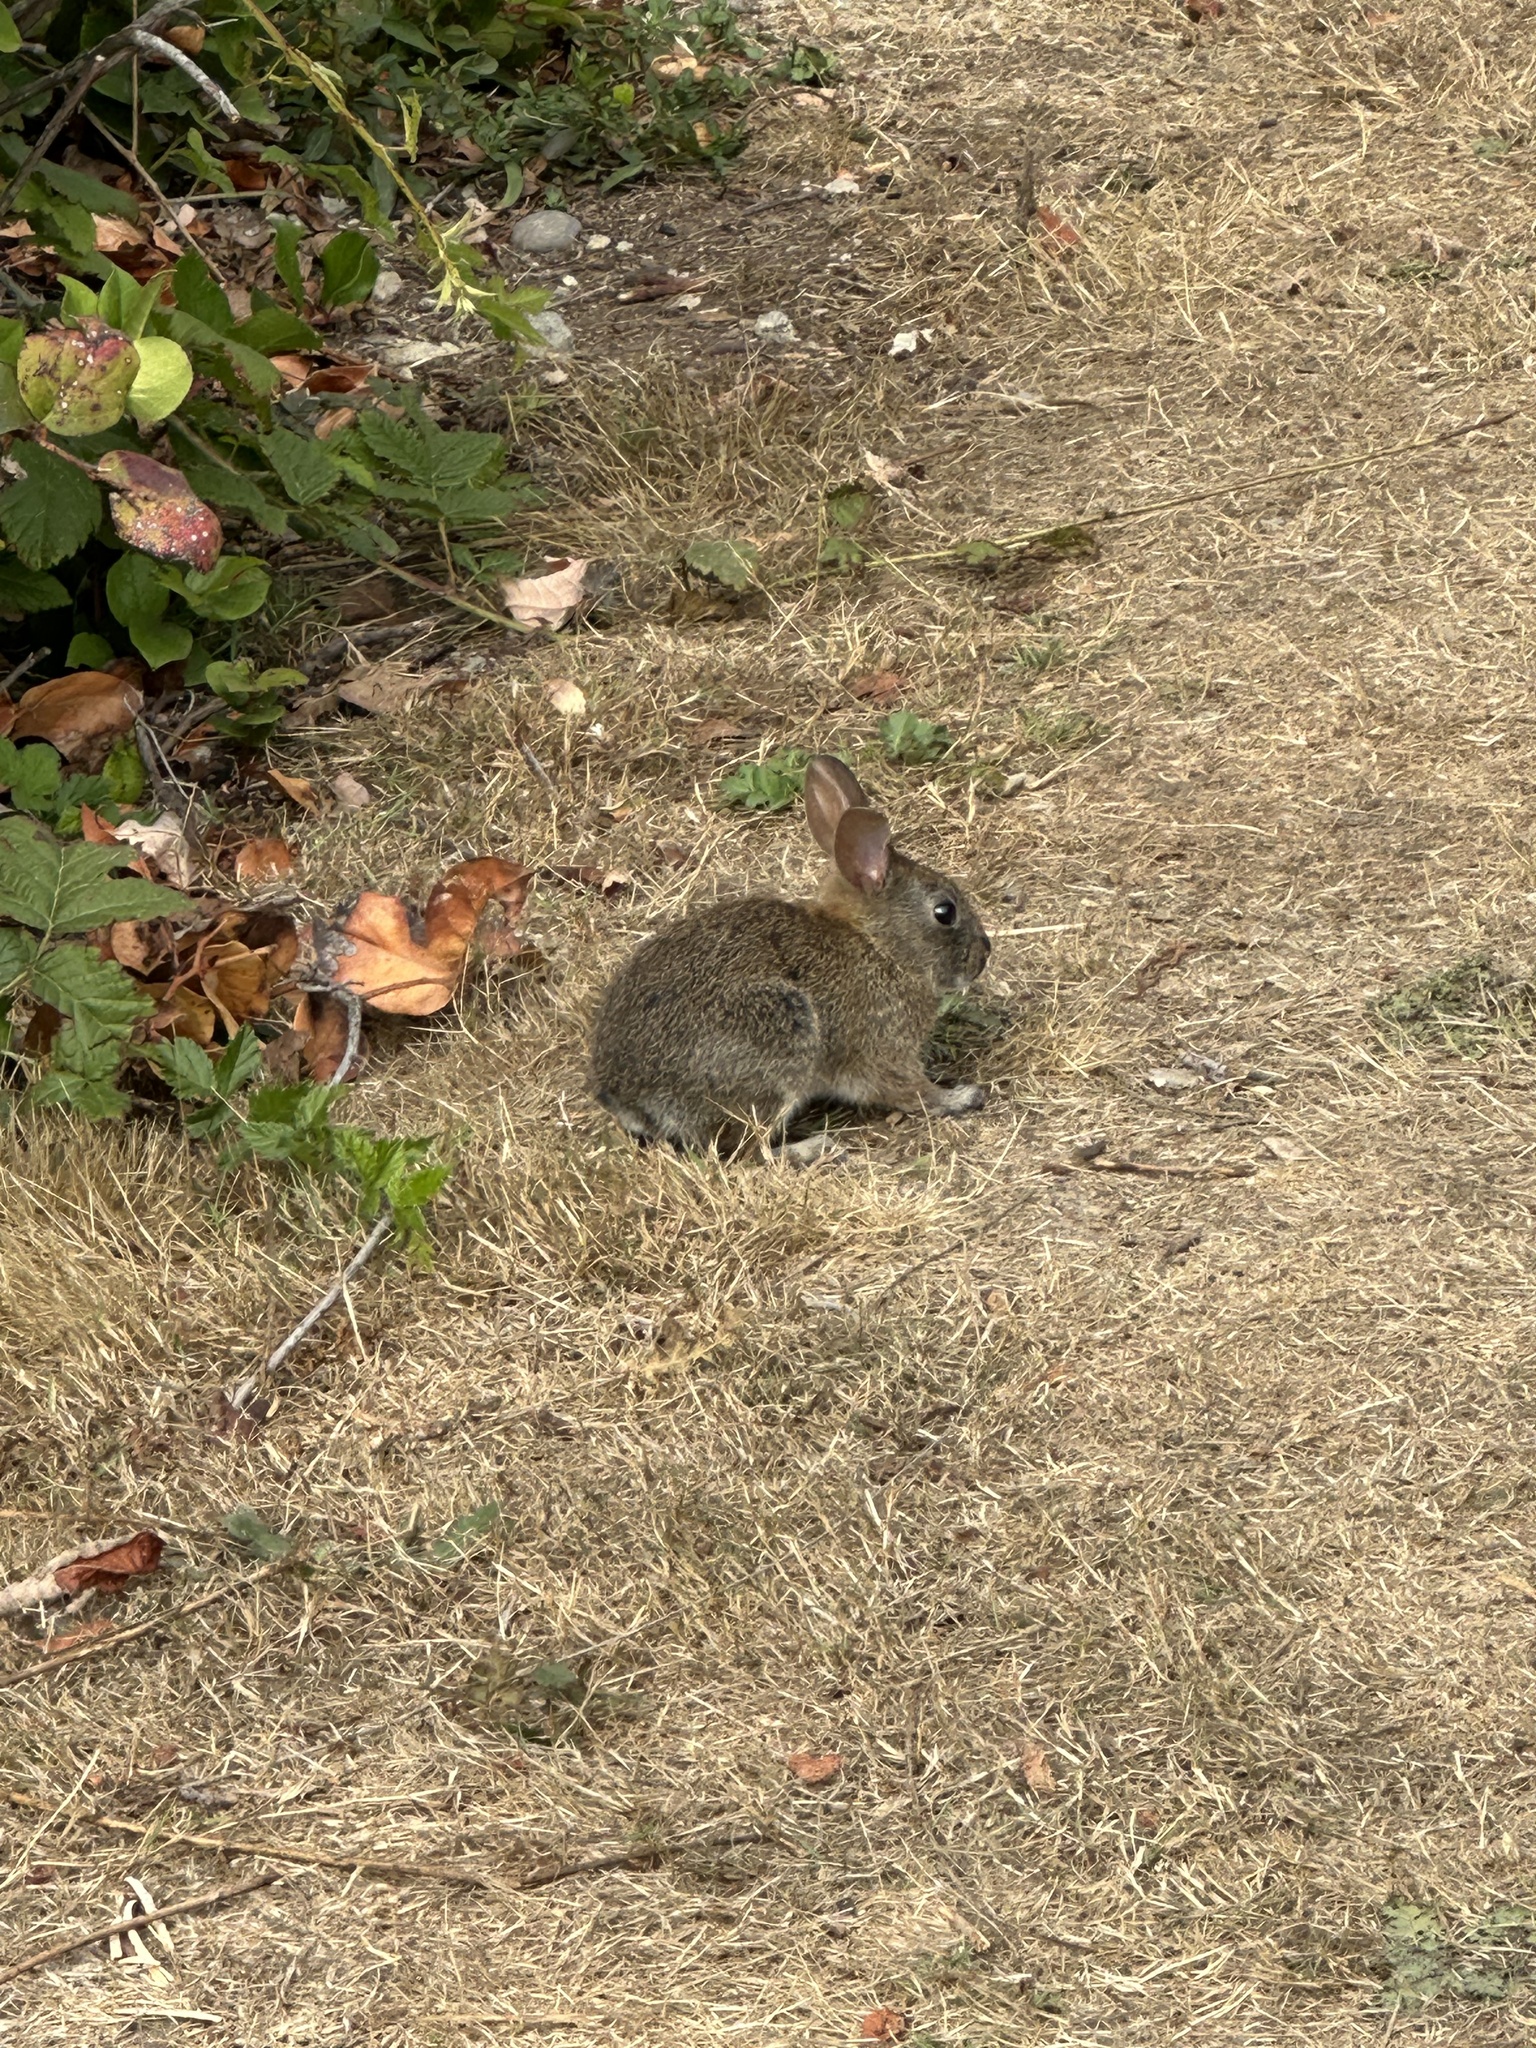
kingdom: Animalia
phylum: Chordata
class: Mammalia
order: Lagomorpha
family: Leporidae
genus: Sylvilagus
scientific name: Sylvilagus bachmani
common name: Brush rabbit
